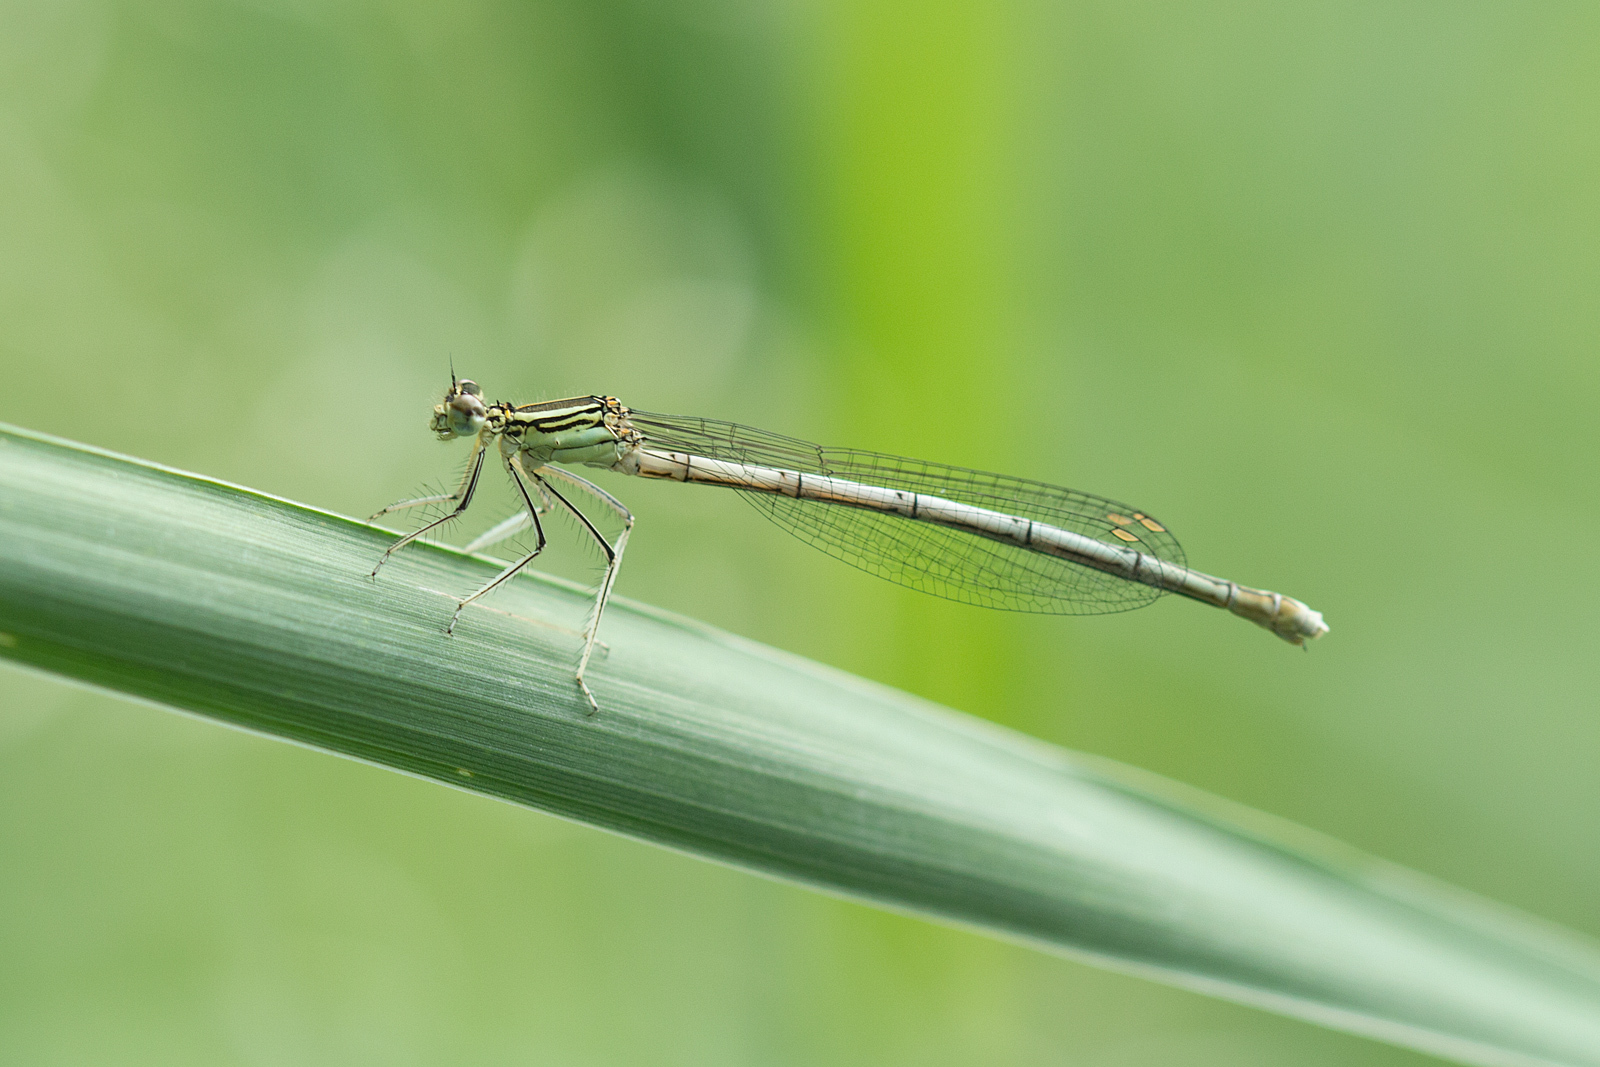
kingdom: Animalia
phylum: Arthropoda
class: Insecta
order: Odonata
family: Platycnemididae
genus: Platycnemis
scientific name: Platycnemis pennipes
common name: White-legged damselfly
